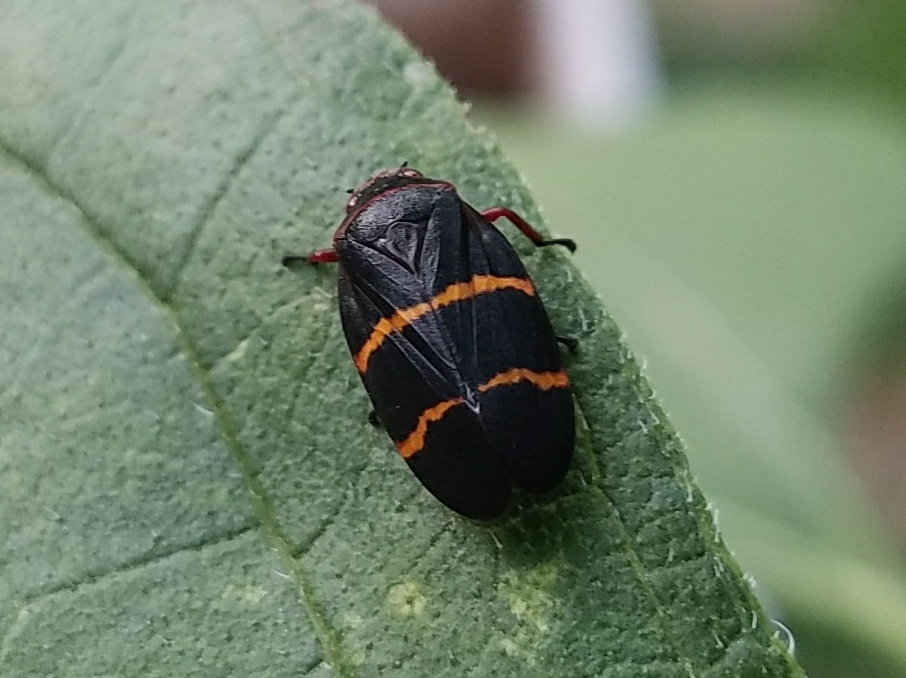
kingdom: Animalia
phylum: Arthropoda
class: Insecta
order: Hemiptera
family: Cercopidae
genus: Prosapia
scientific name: Prosapia bicincta
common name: Twolined spittlebug
